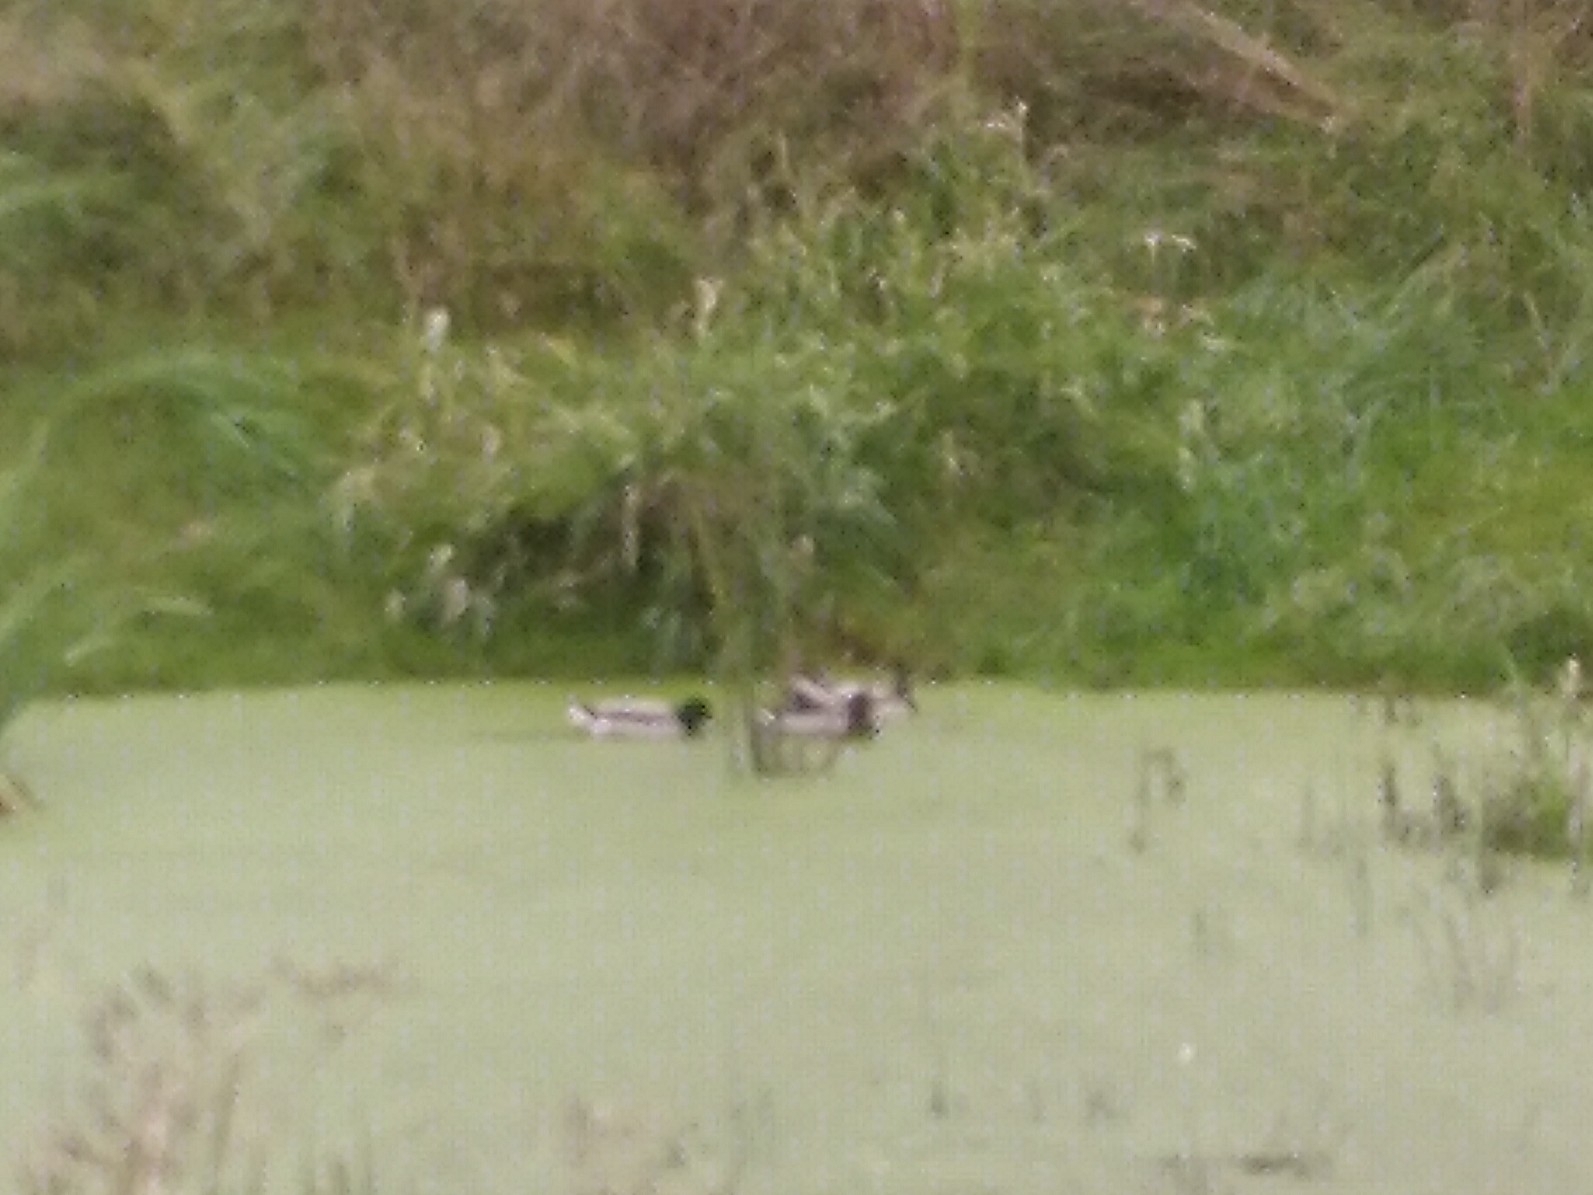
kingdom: Animalia
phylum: Chordata
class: Aves
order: Anseriformes
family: Anatidae
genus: Anas
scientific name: Anas platyrhynchos
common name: Mallard
